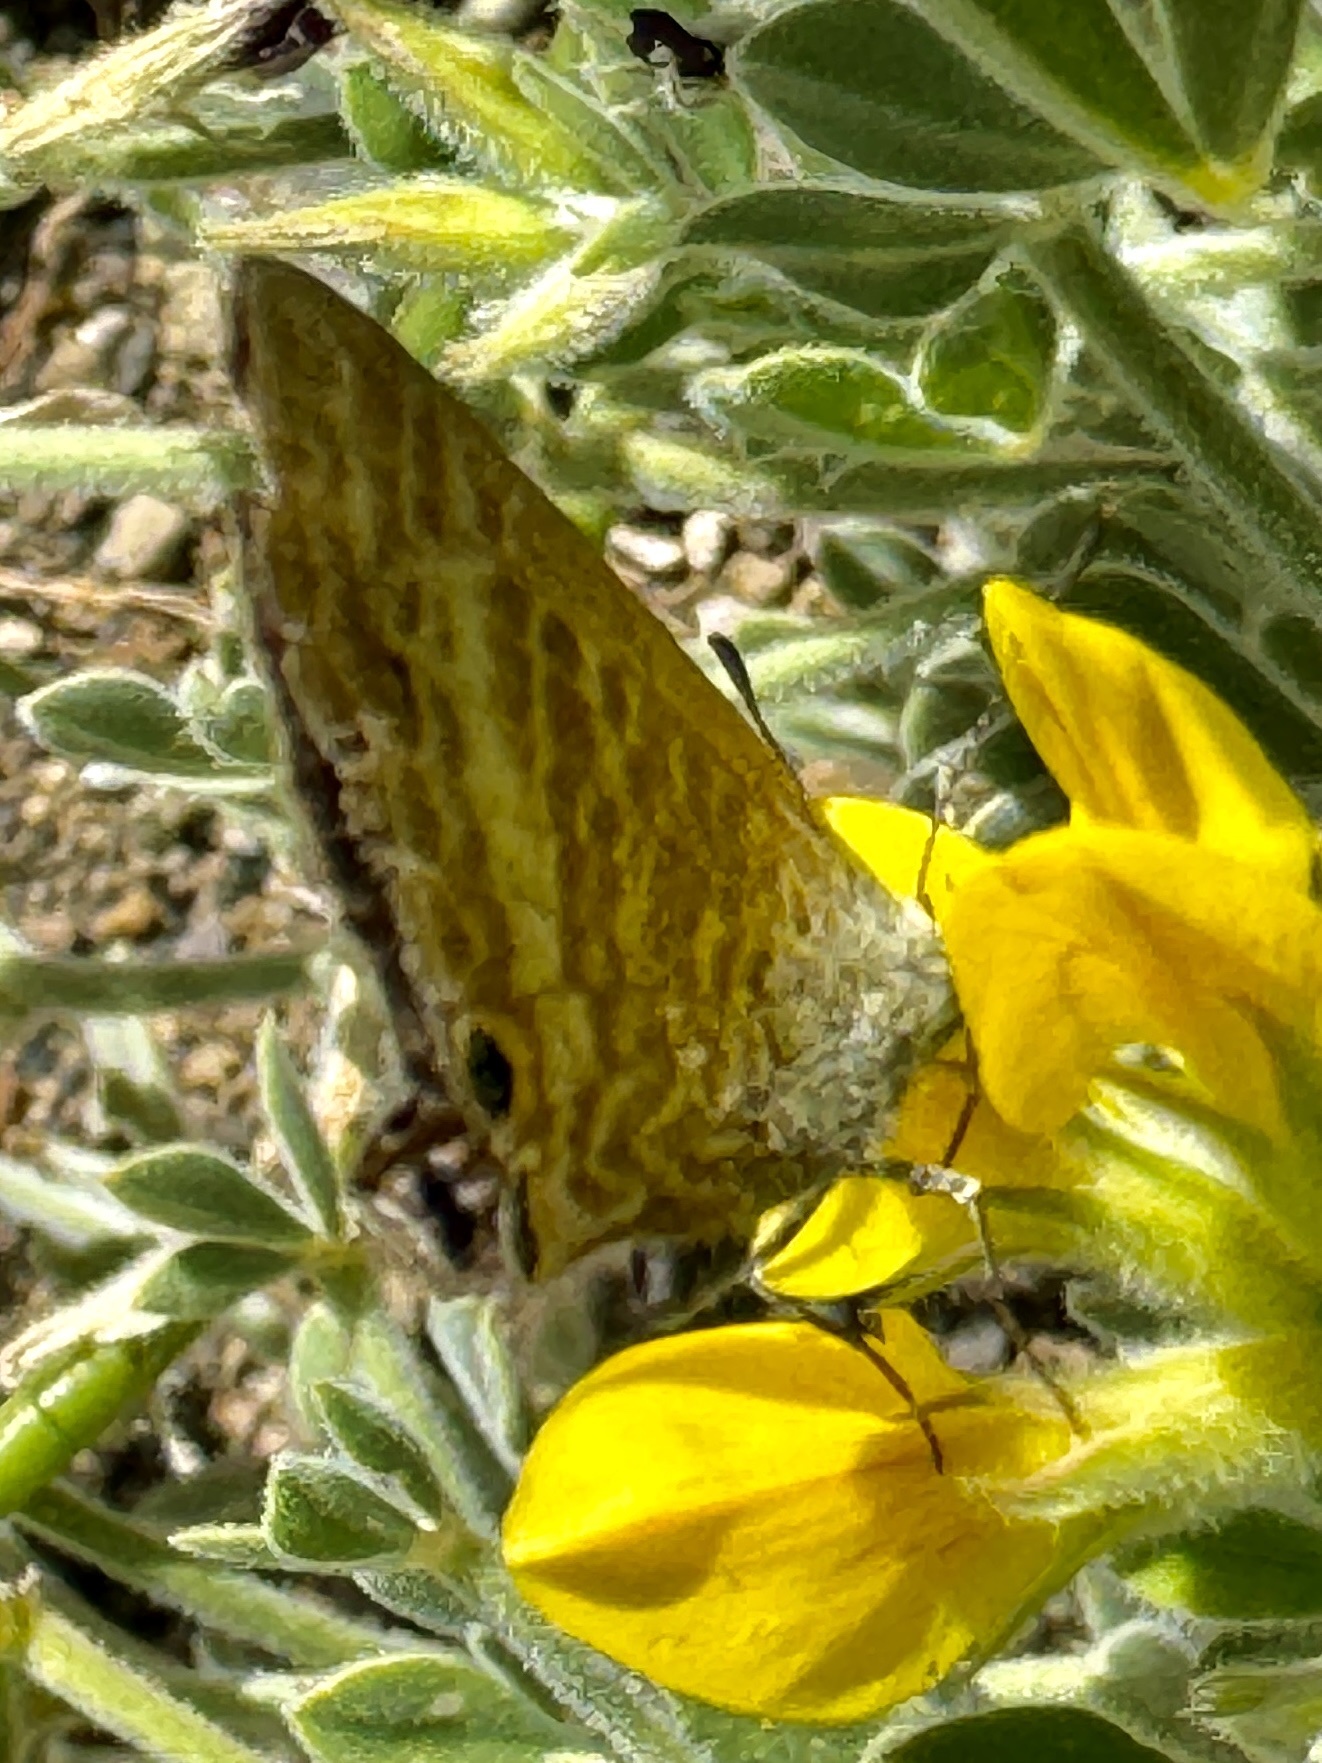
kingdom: Animalia
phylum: Arthropoda
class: Insecta
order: Lepidoptera
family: Lycaenidae
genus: Lampides
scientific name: Lampides boeticus
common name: Long-tailed blue
